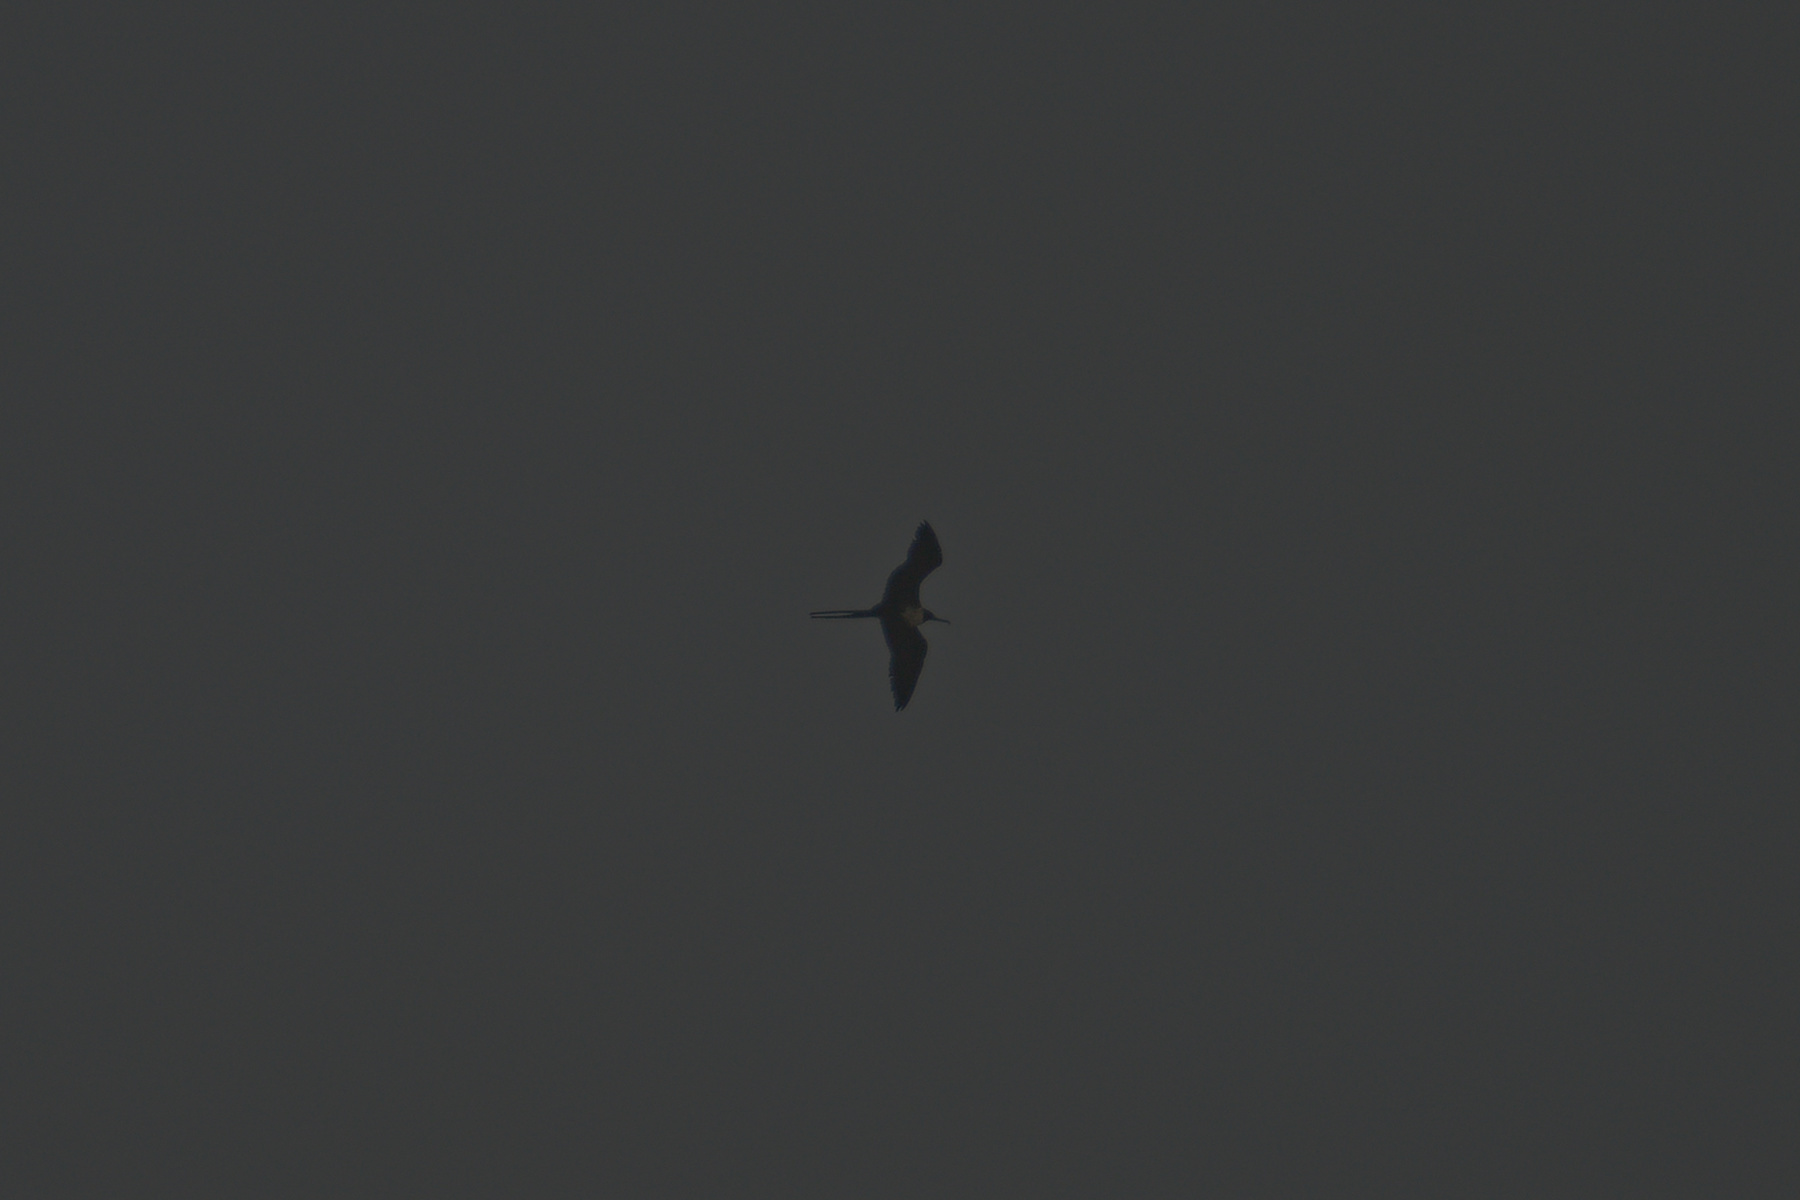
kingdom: Animalia
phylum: Chordata
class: Aves
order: Suliformes
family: Fregatidae
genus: Fregata
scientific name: Fregata magnificens
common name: Magnificent frigatebird
